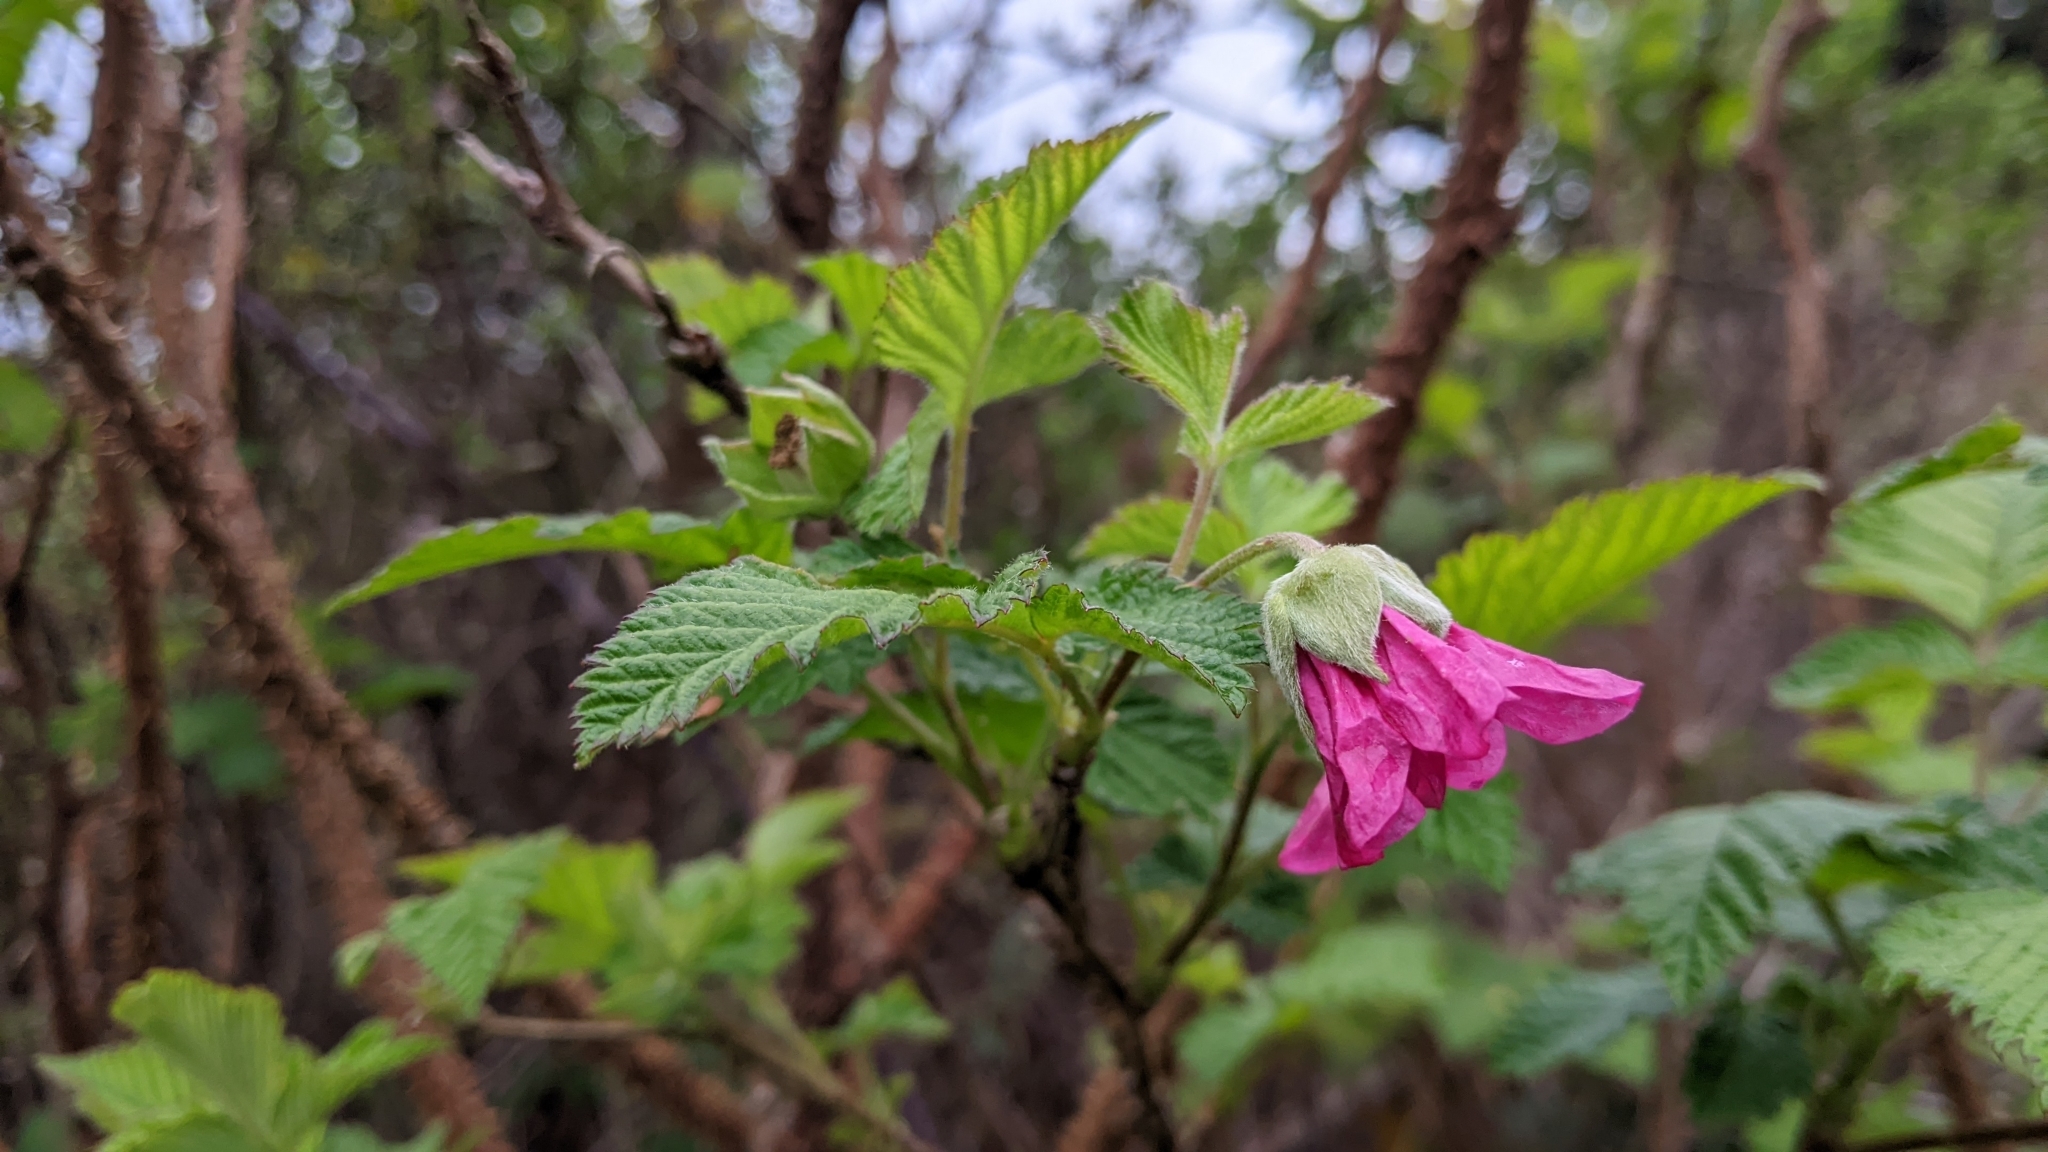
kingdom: Plantae
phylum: Tracheophyta
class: Magnoliopsida
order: Rosales
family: Rosaceae
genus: Rubus
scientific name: Rubus spectabilis
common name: Salmonberry
